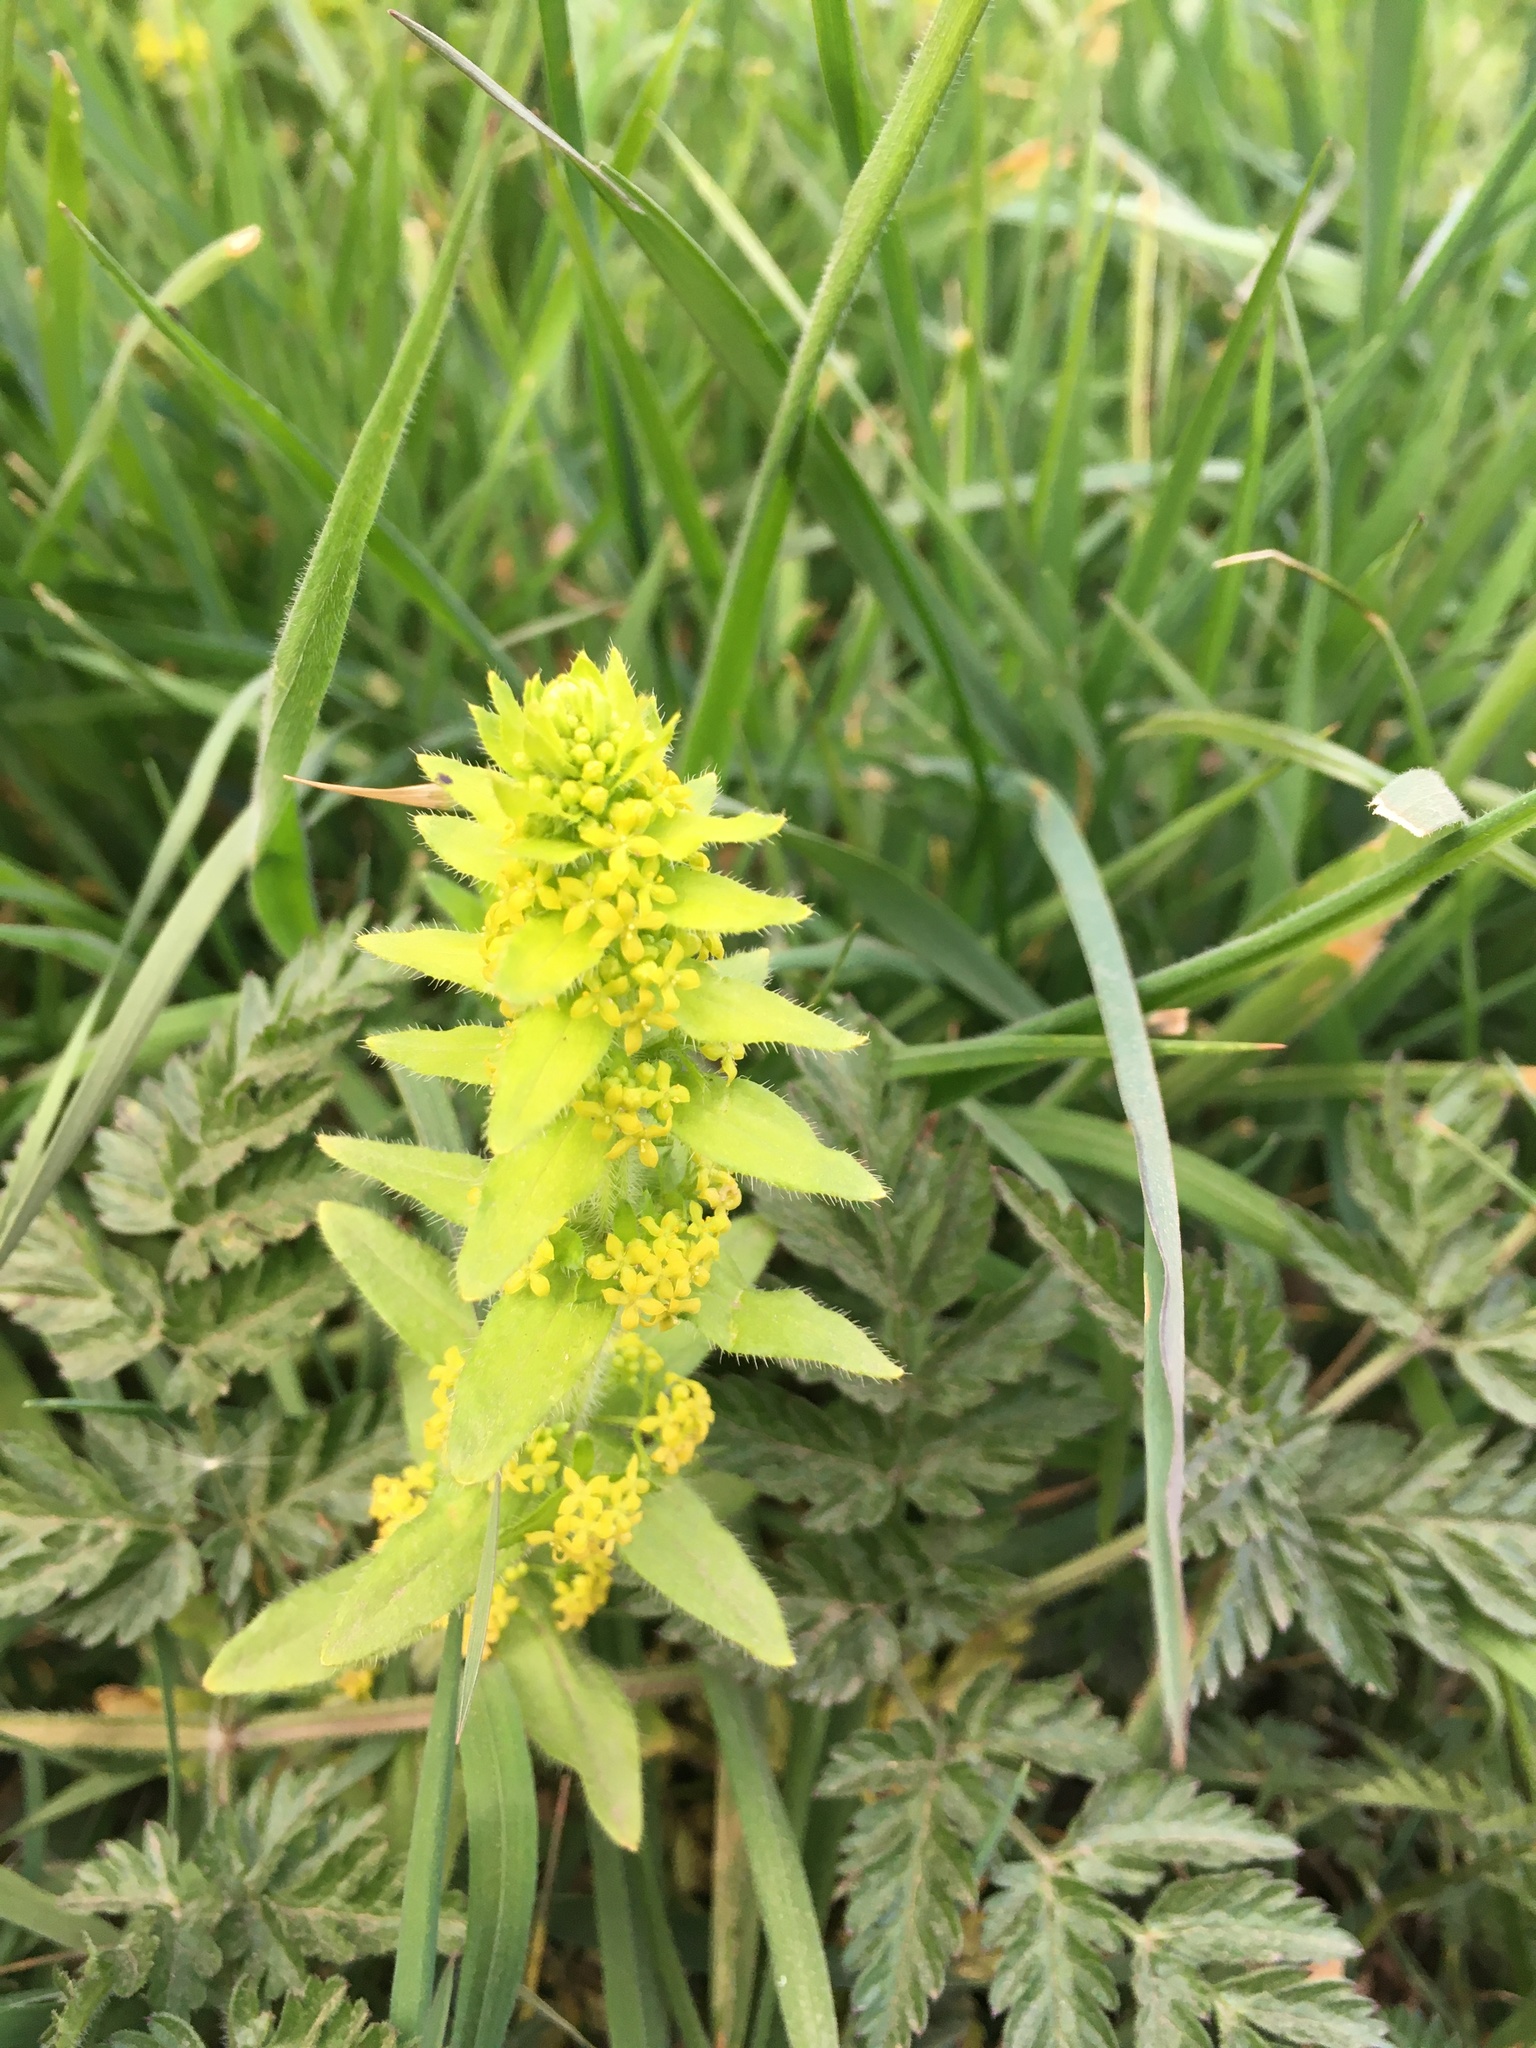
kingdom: Plantae
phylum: Tracheophyta
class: Magnoliopsida
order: Gentianales
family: Rubiaceae
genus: Cruciata
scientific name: Cruciata laevipes
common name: Crosswort
